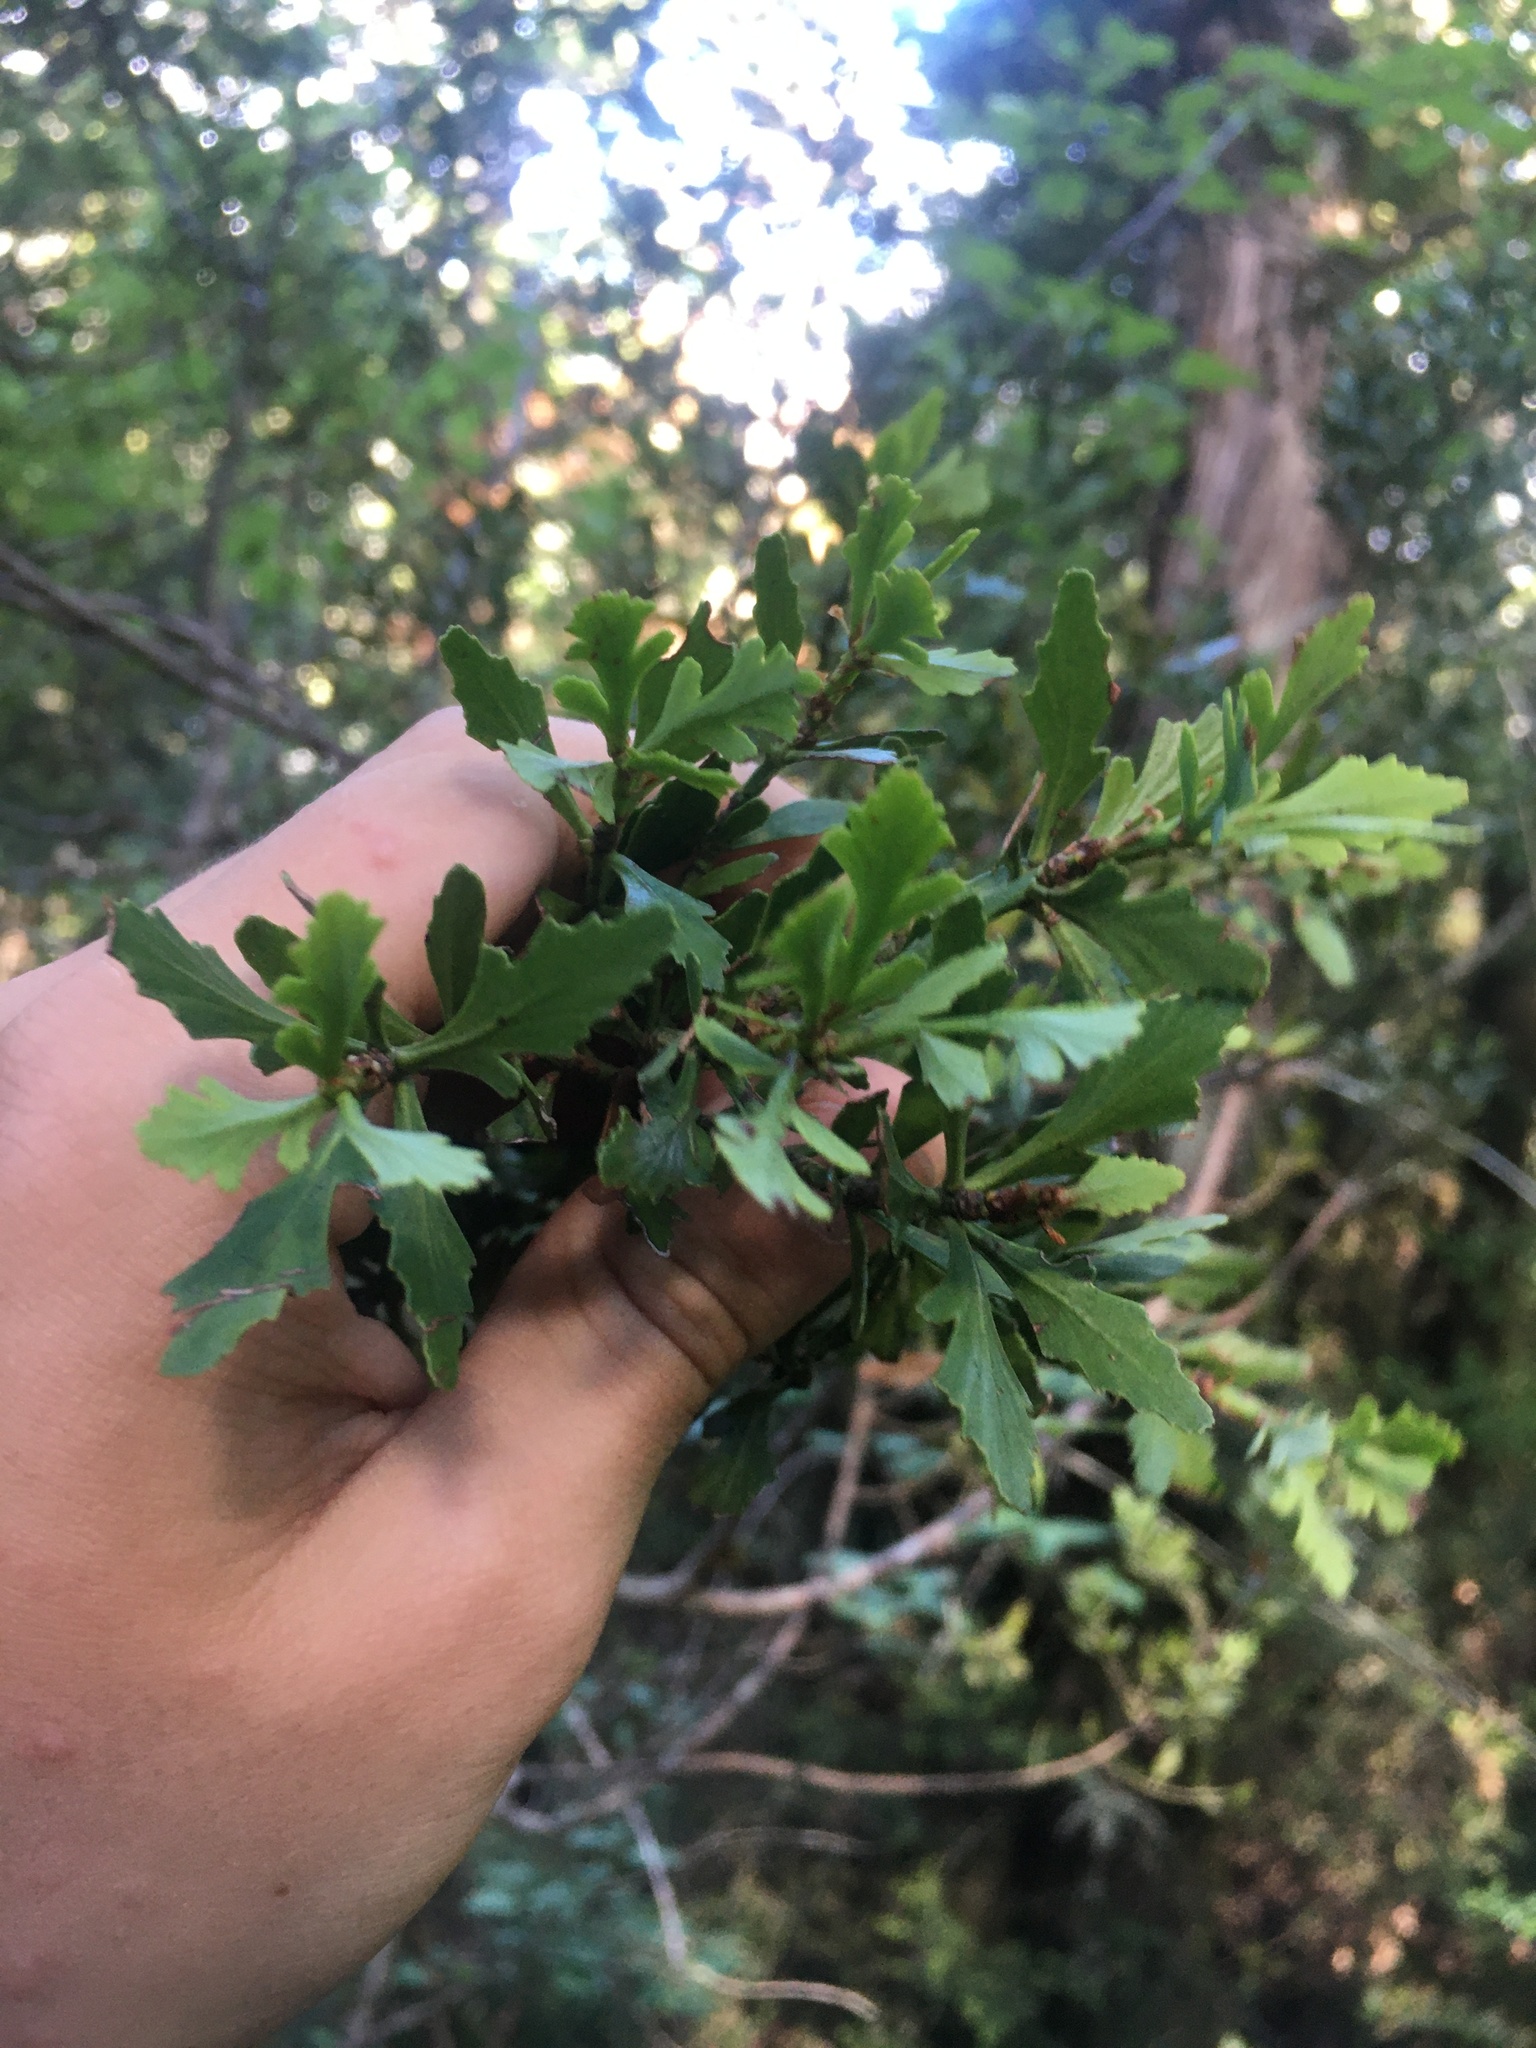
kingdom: Plantae
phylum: Tracheophyta
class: Pinopsida
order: Pinales
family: Phyllocladaceae
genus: Phyllocladus
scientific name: Phyllocladus trichomanoides
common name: Celery pine
